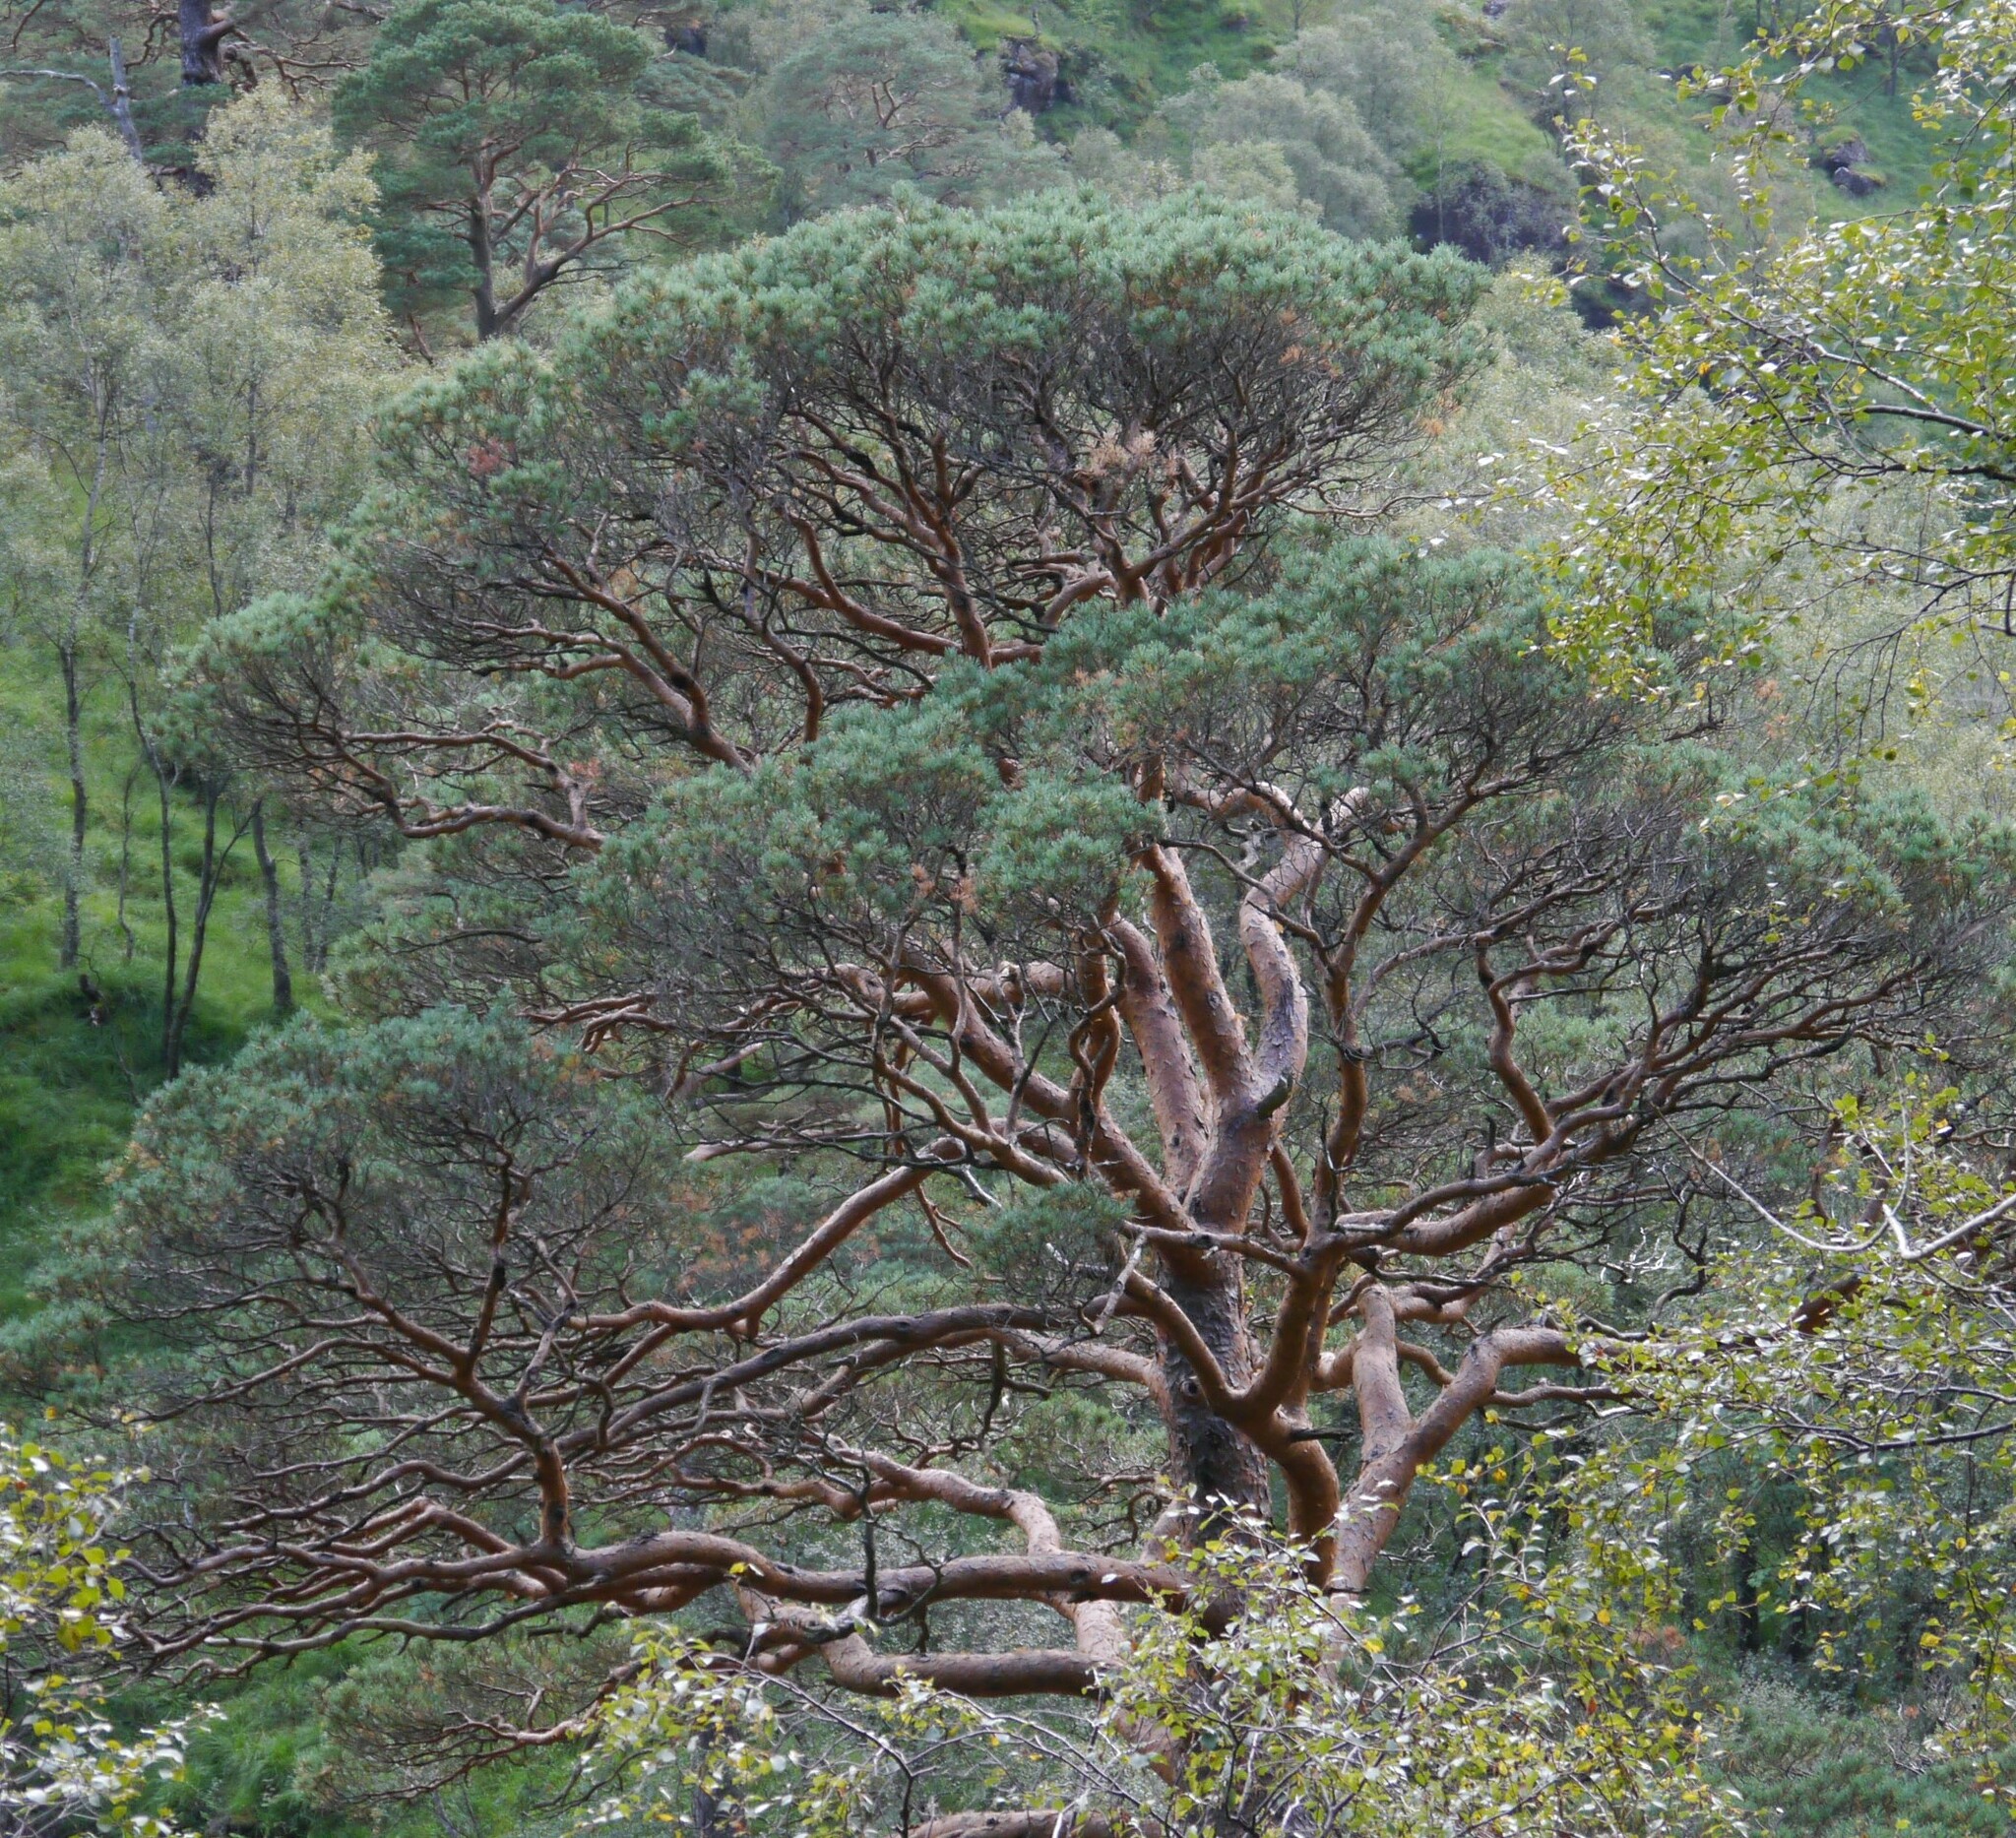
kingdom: Plantae
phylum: Tracheophyta
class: Pinopsida
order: Pinales
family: Pinaceae
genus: Pinus
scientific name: Pinus sylvestris
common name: Scots pine
